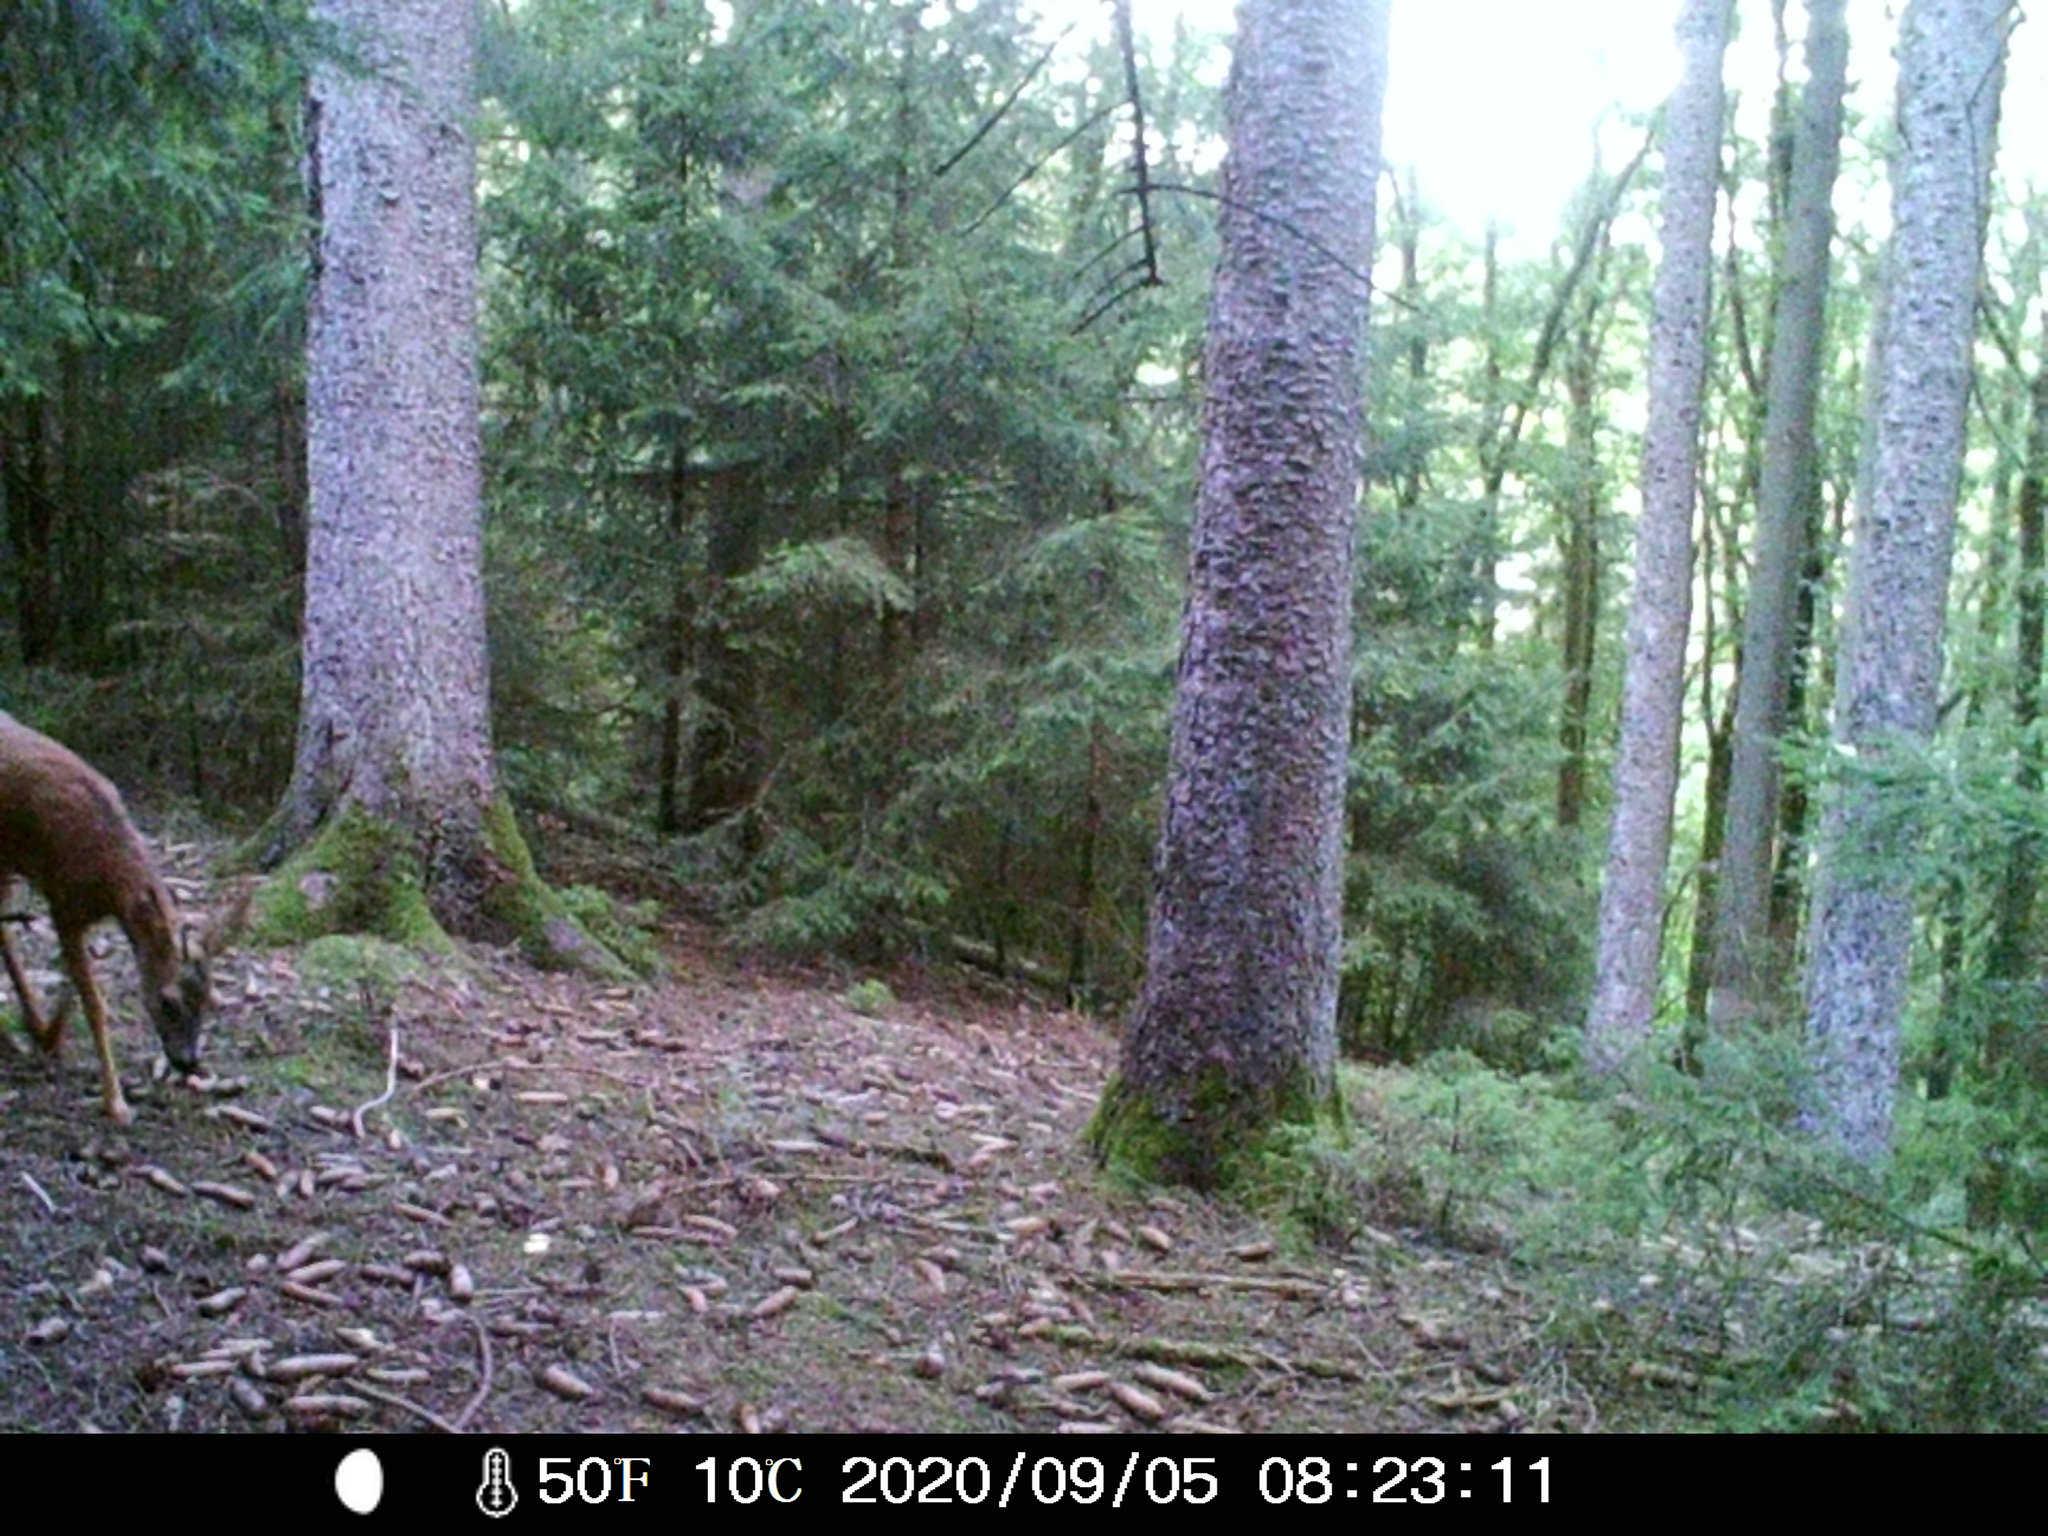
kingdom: Animalia
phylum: Chordata
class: Mammalia
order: Artiodactyla
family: Cervidae
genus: Capreolus
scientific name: Capreolus capreolus
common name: Western roe deer
